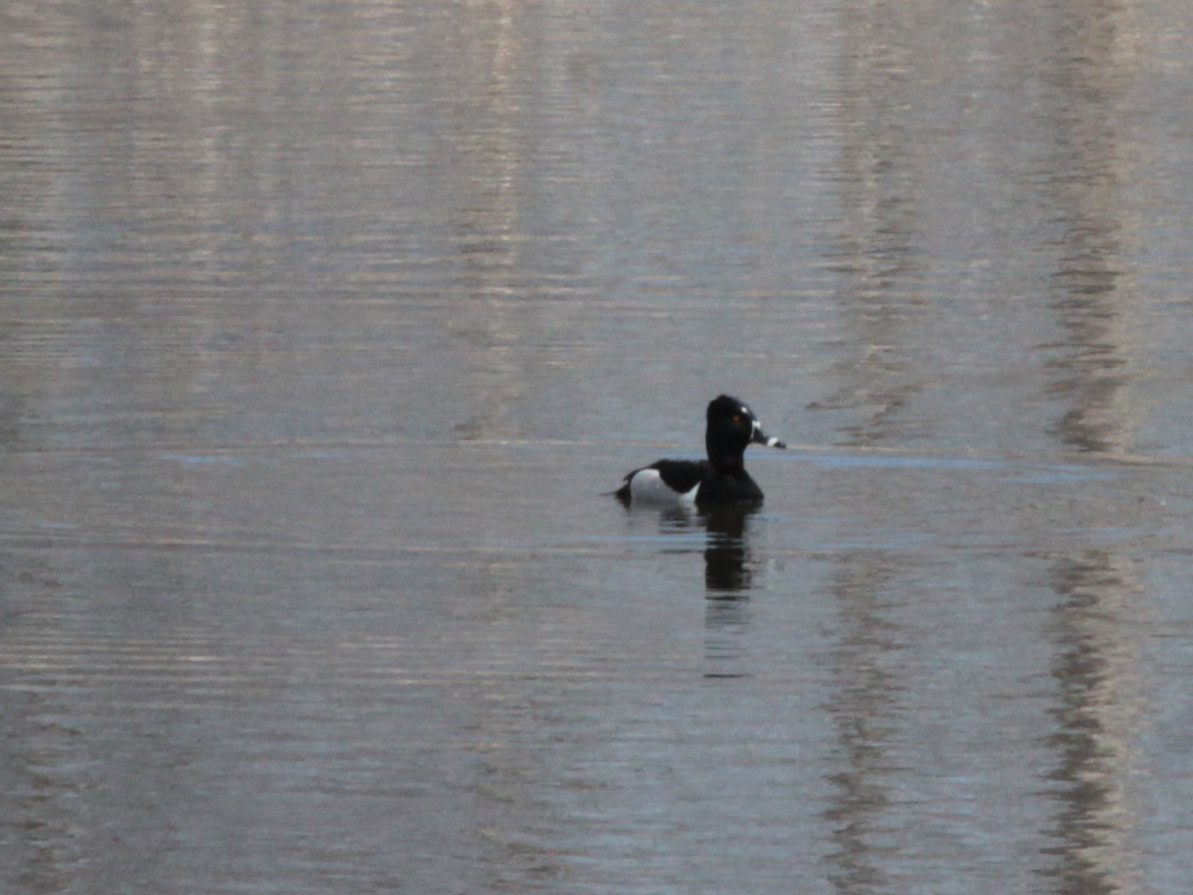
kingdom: Animalia
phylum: Chordata
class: Aves
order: Anseriformes
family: Anatidae
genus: Aythya
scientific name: Aythya collaris
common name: Ring-necked duck
